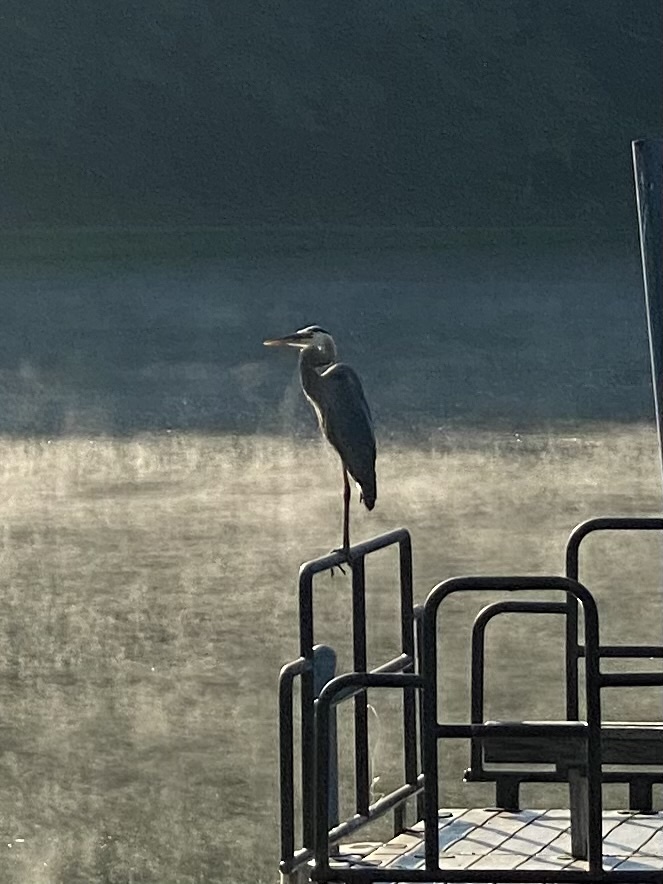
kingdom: Animalia
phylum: Chordata
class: Aves
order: Pelecaniformes
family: Ardeidae
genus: Ardea
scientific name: Ardea herodias
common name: Great blue heron
